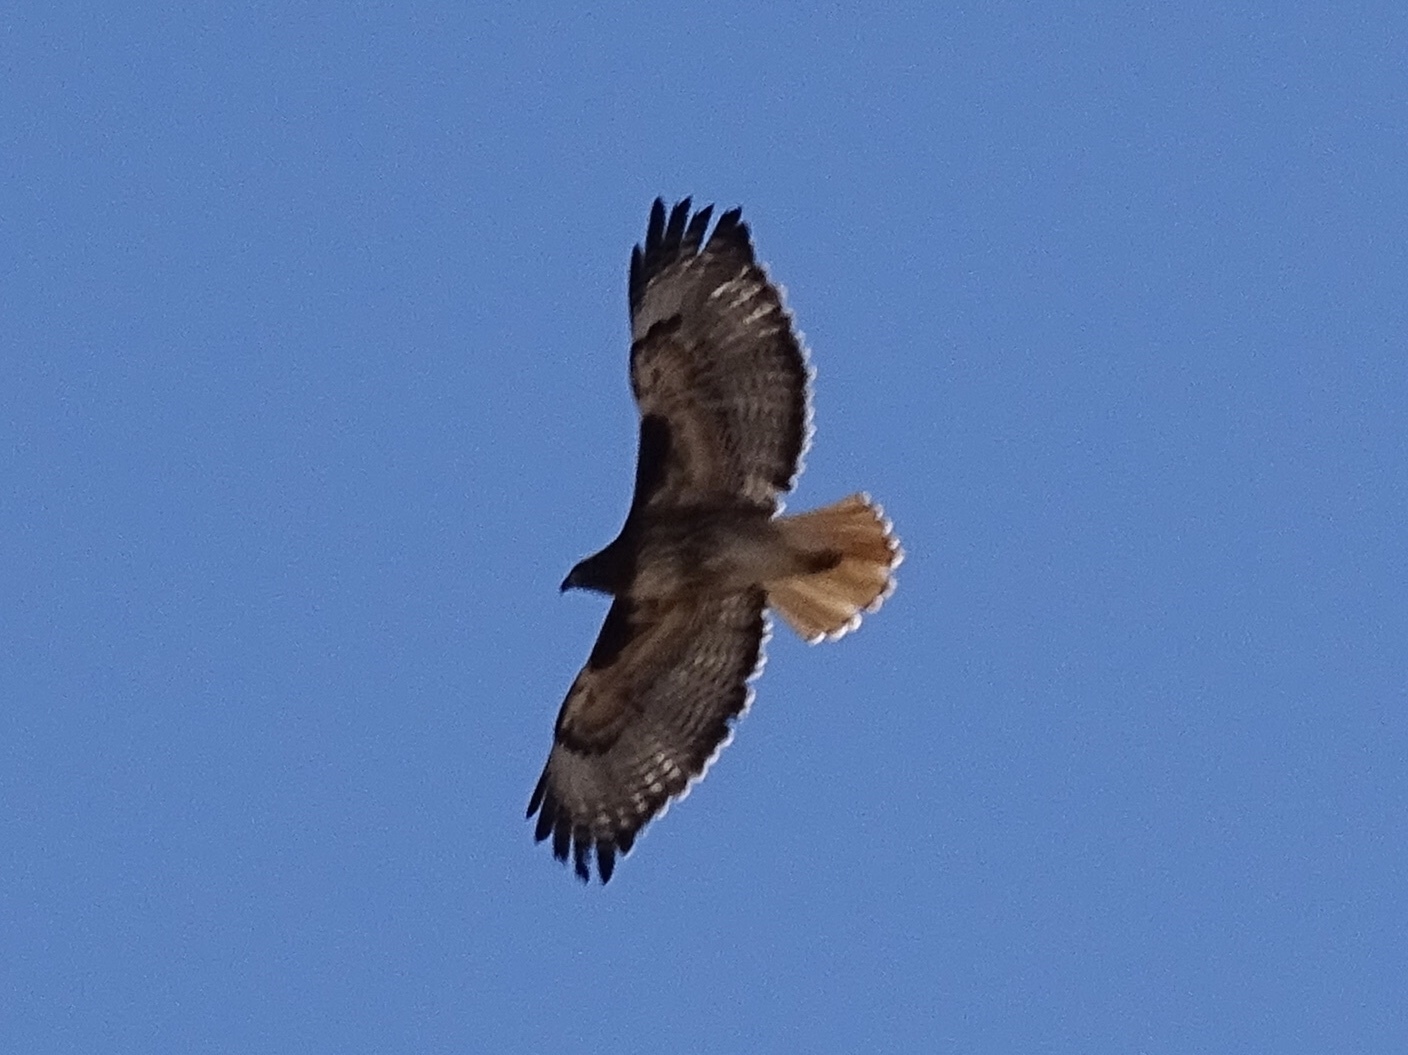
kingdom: Animalia
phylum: Chordata
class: Aves
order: Accipitriformes
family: Accipitridae
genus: Buteo
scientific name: Buteo jamaicensis
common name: Red-tailed hawk
